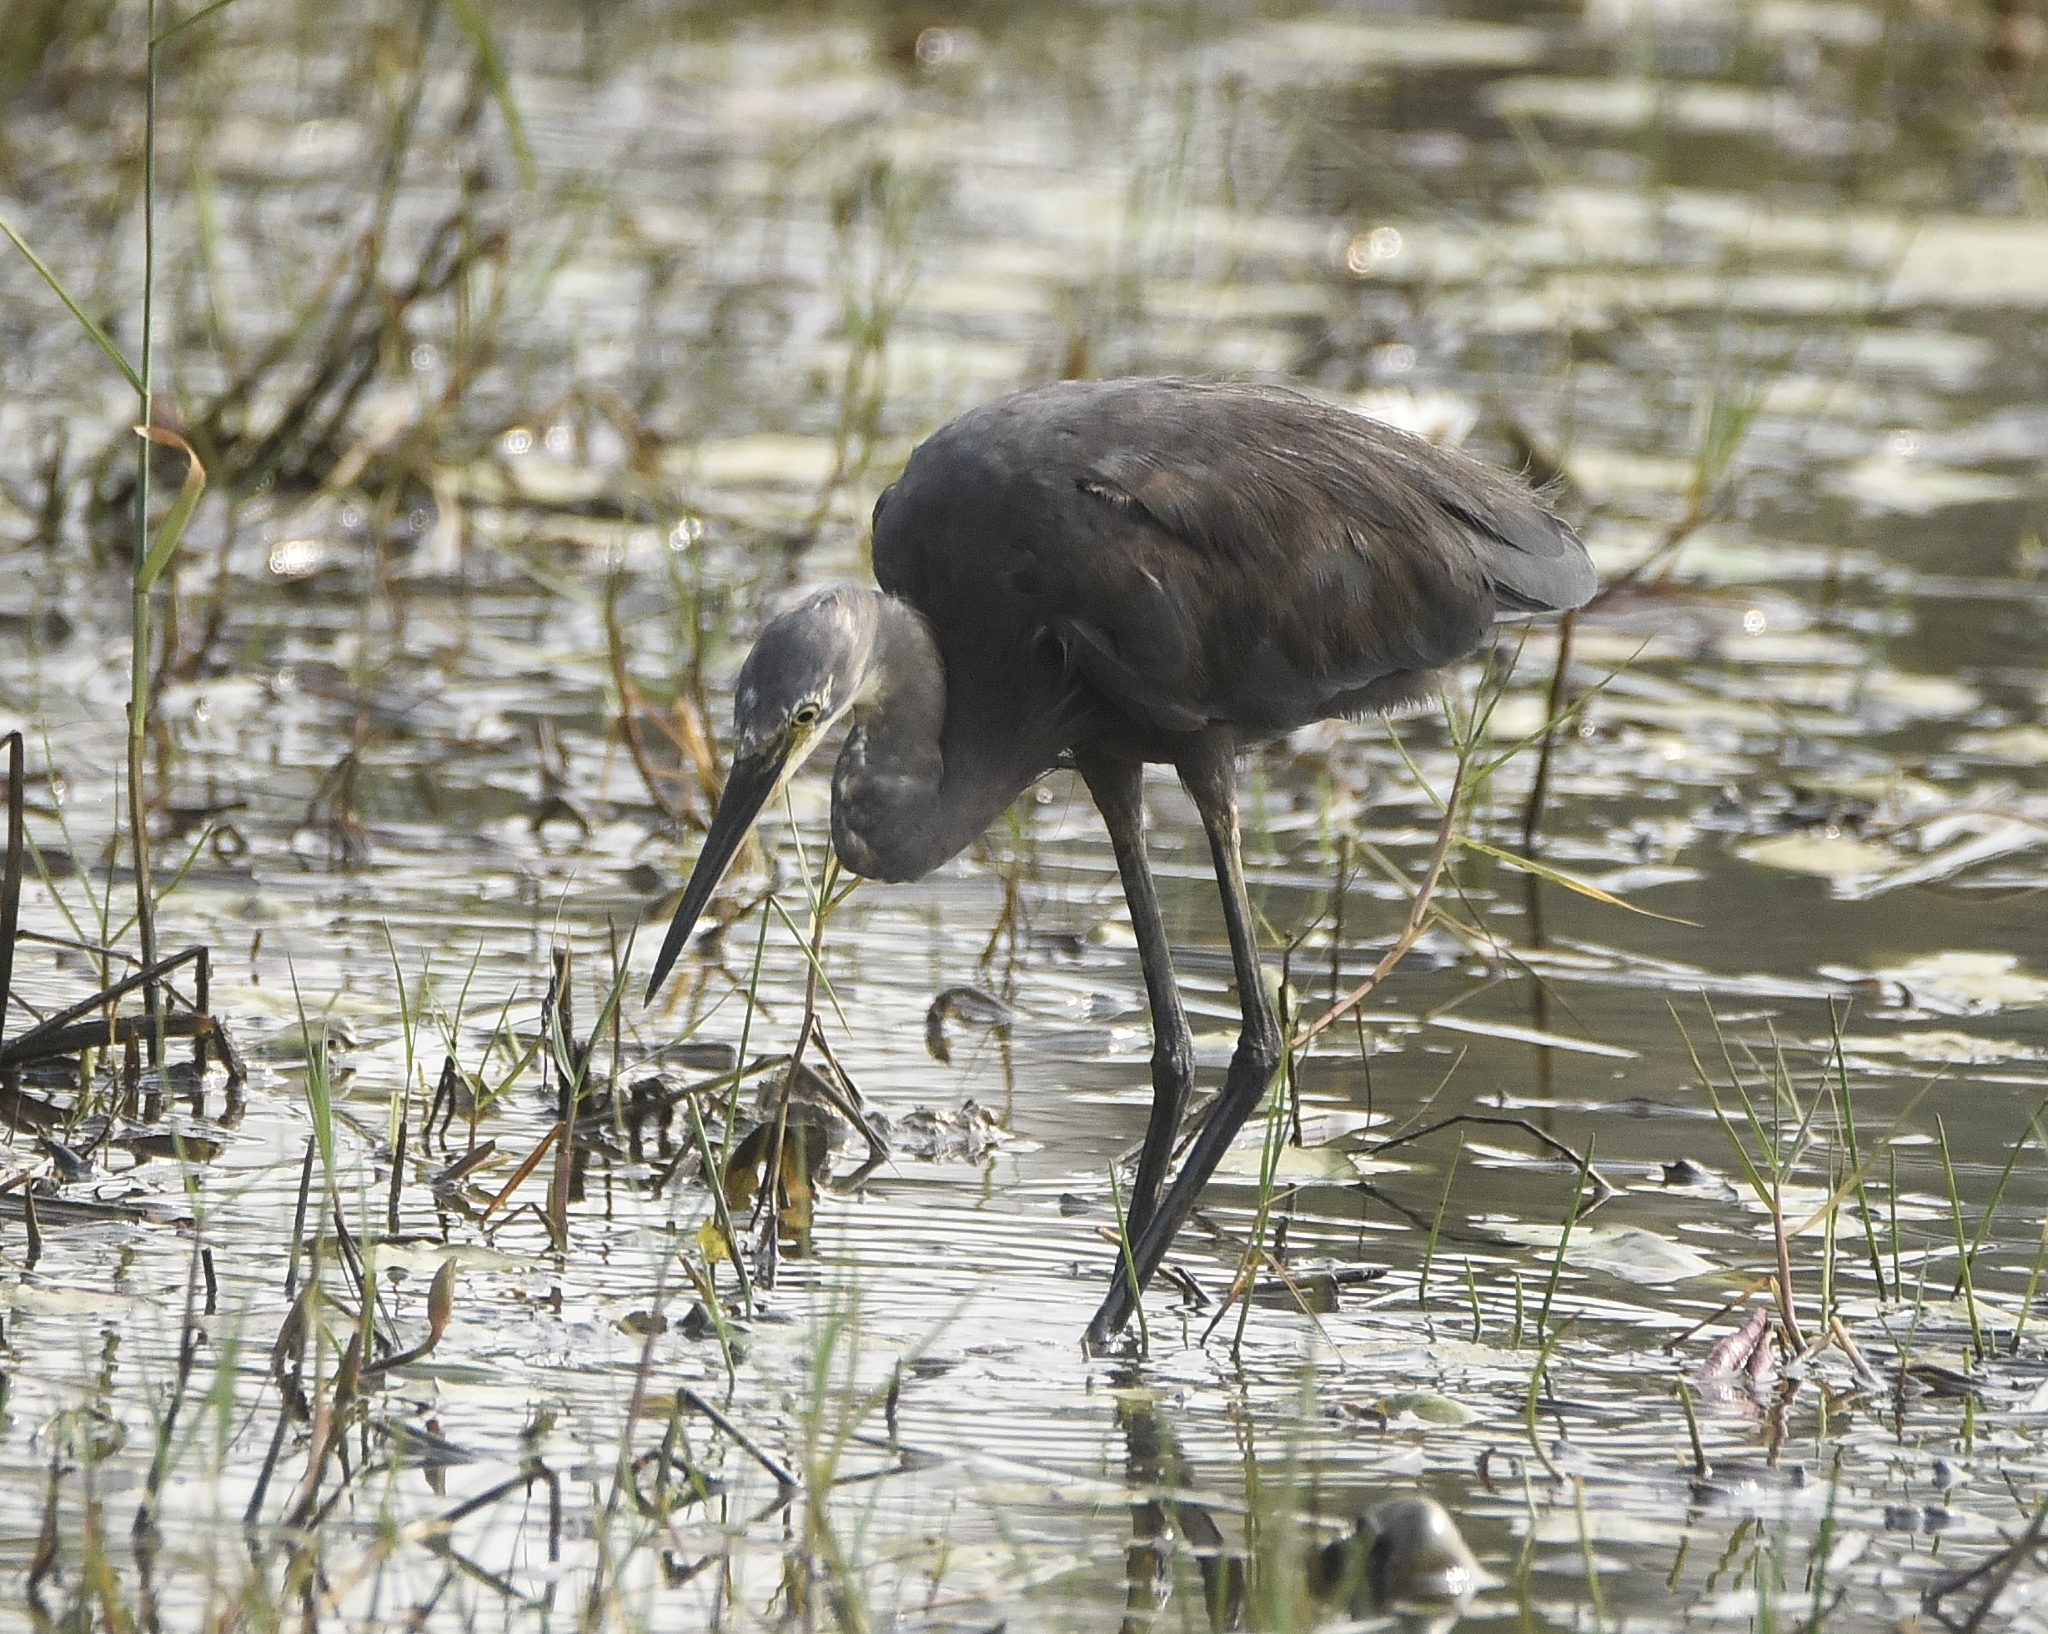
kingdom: Animalia
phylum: Chordata
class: Aves
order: Pelecaniformes
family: Ardeidae
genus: Egretta
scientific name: Egretta garzetta
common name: Little egret
